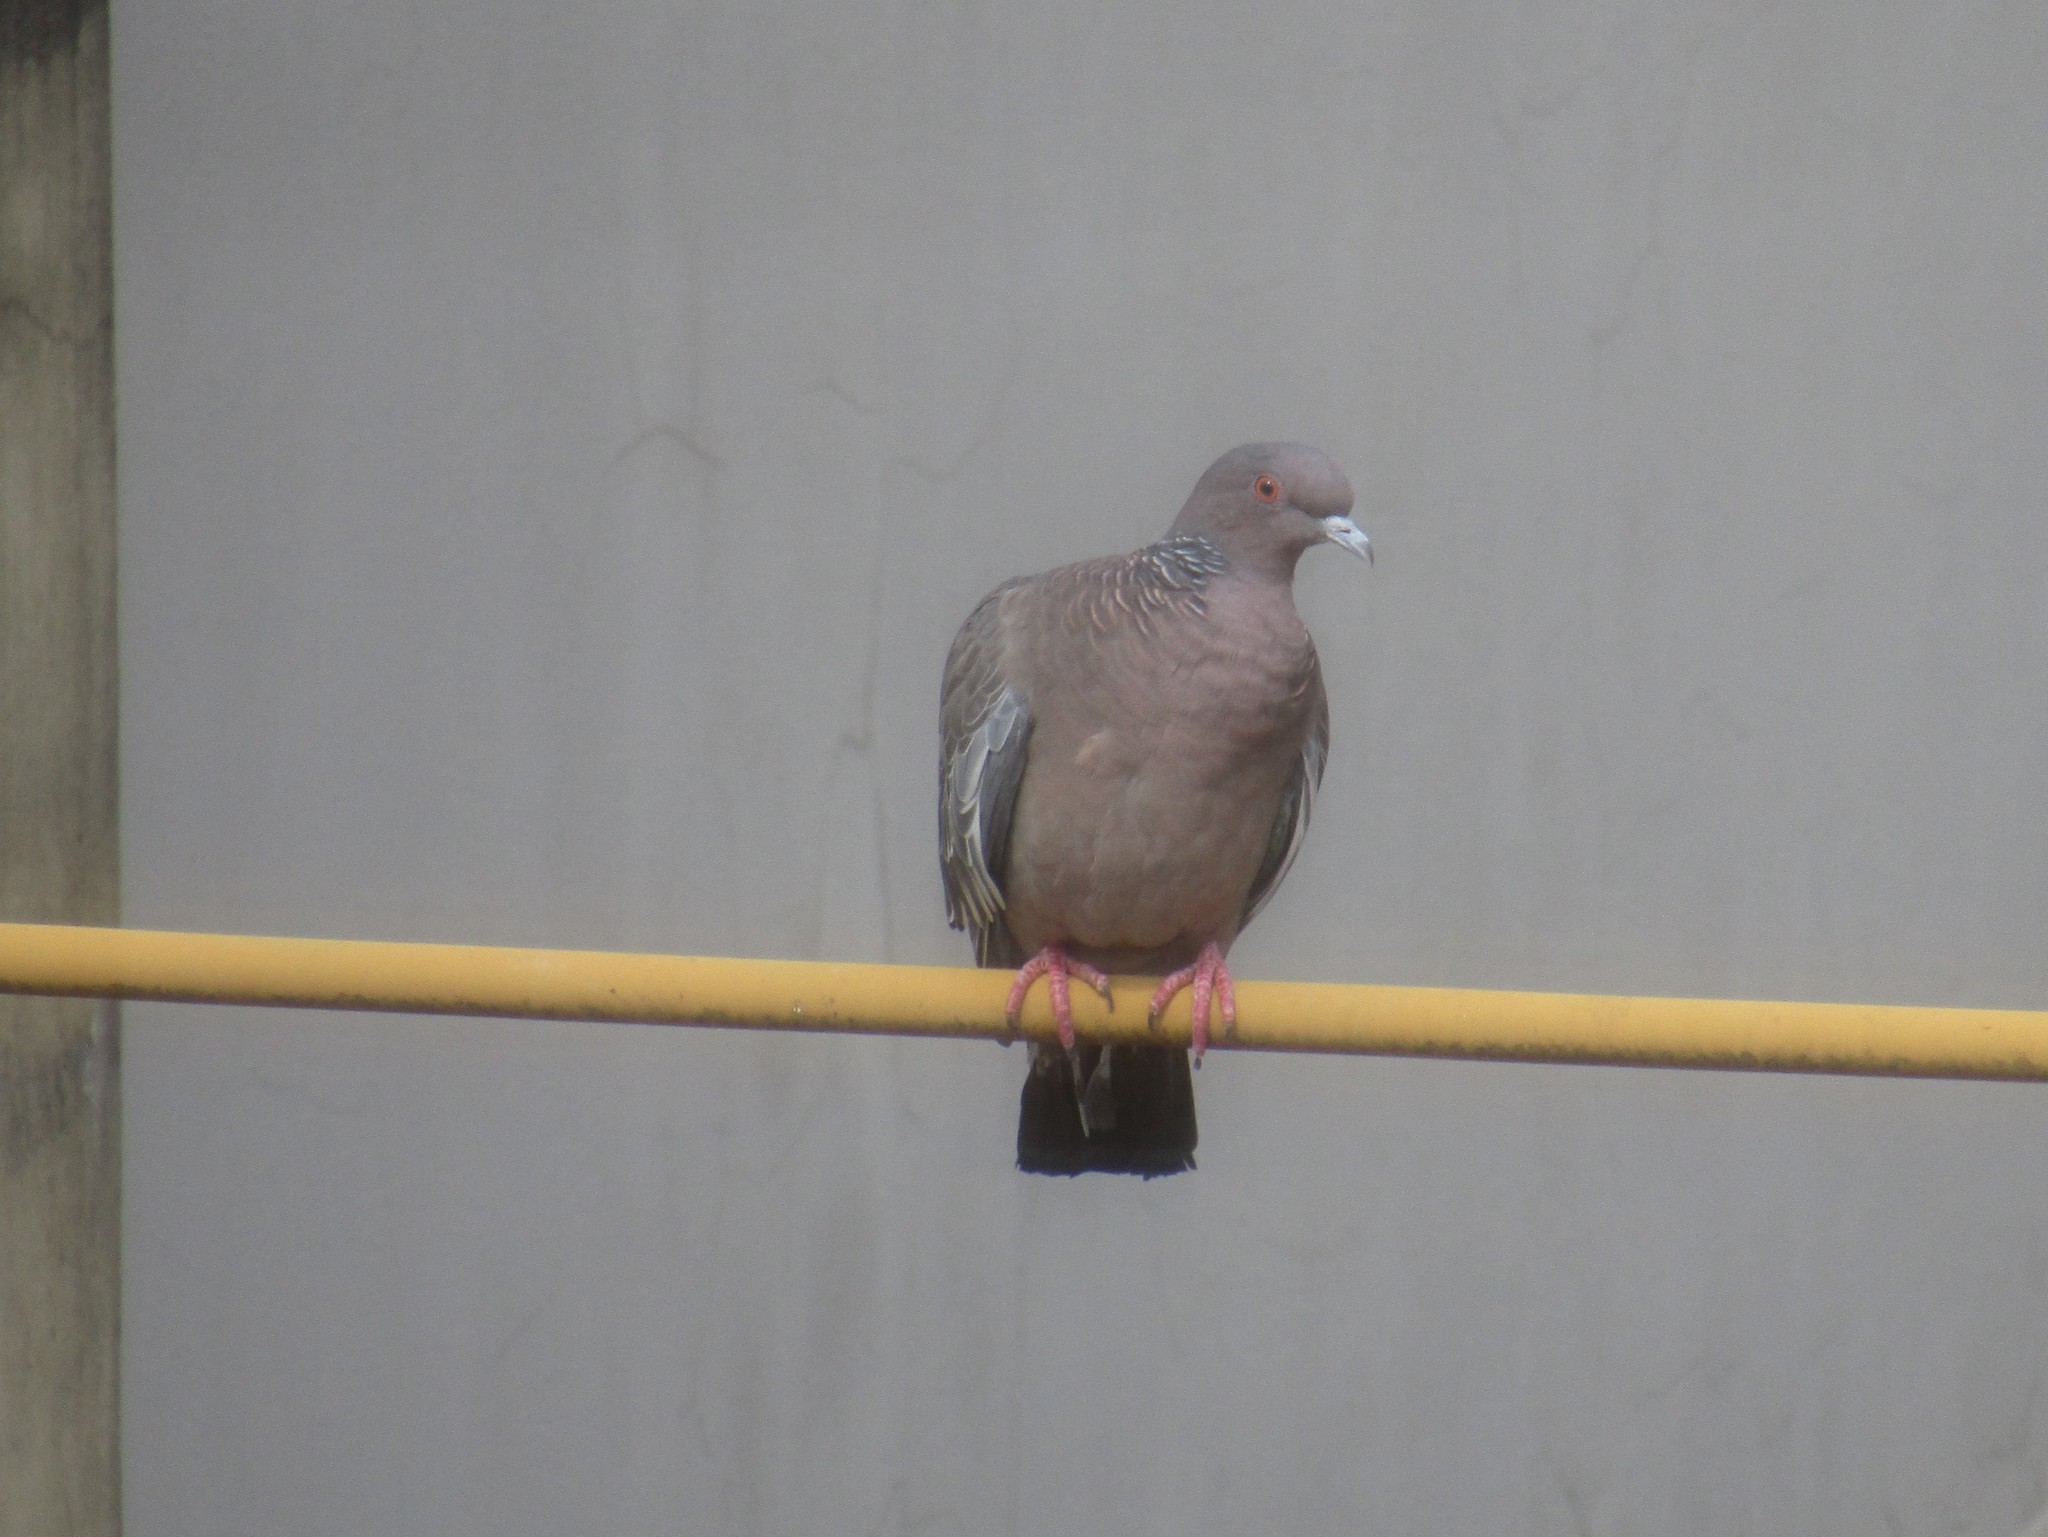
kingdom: Animalia
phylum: Chordata
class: Aves
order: Columbiformes
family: Columbidae
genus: Patagioenas
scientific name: Patagioenas picazuro
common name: Picazuro pigeon
